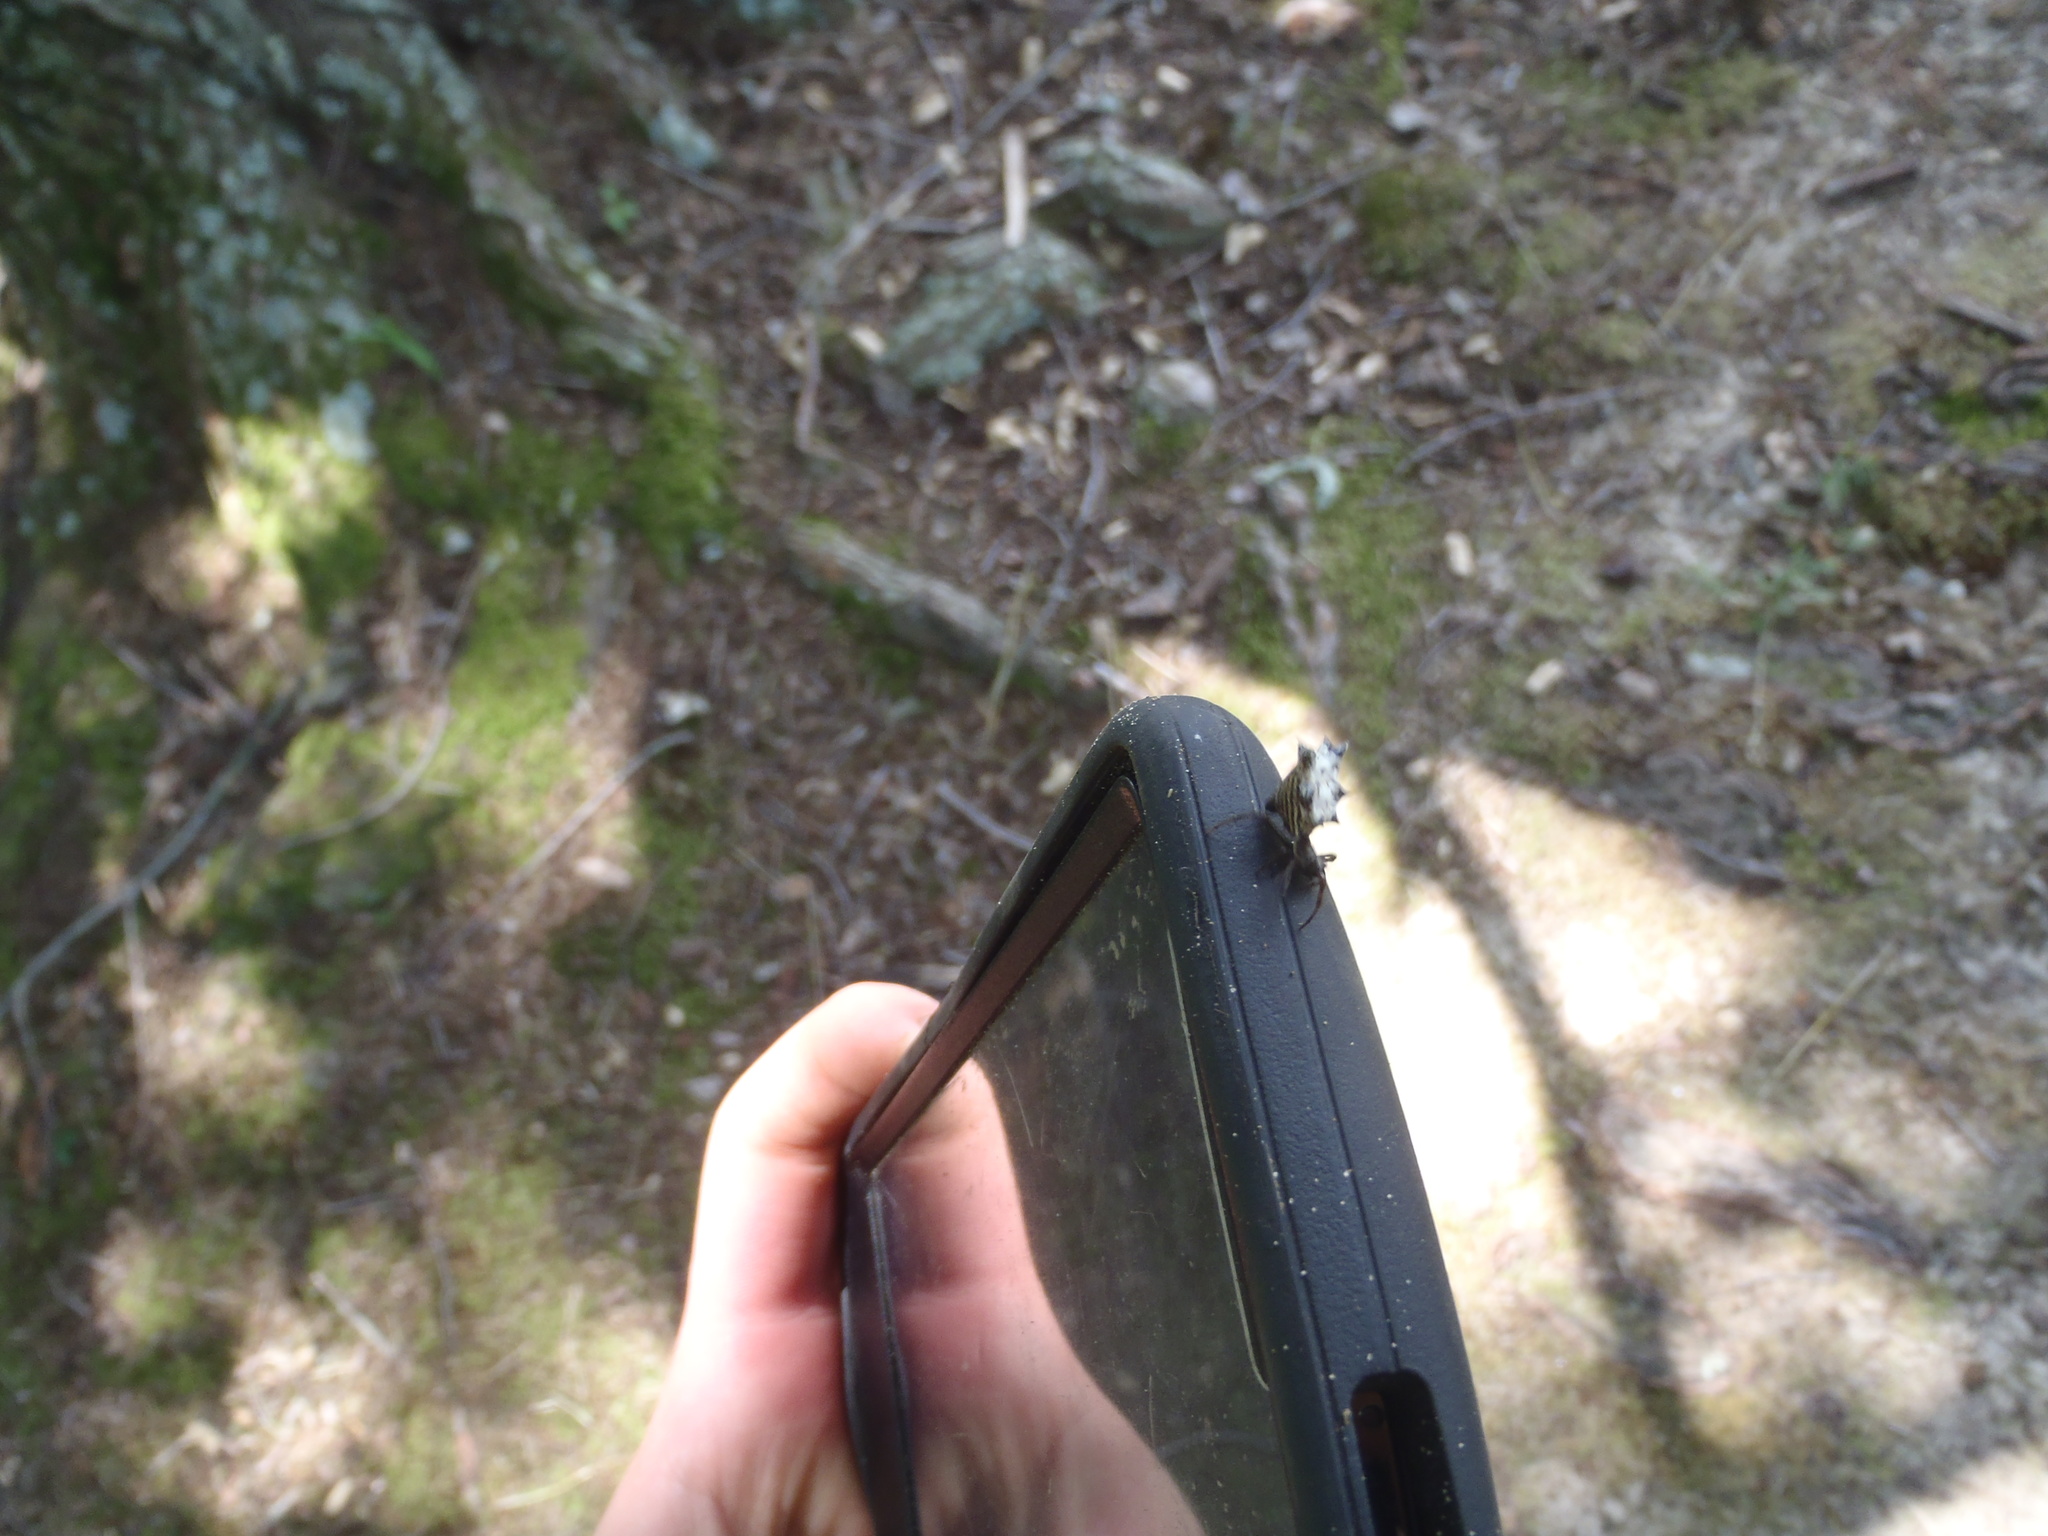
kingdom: Animalia
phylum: Arthropoda
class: Arachnida
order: Araneae
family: Araneidae
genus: Micrathena
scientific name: Micrathena gracilis
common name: Orb weavers
